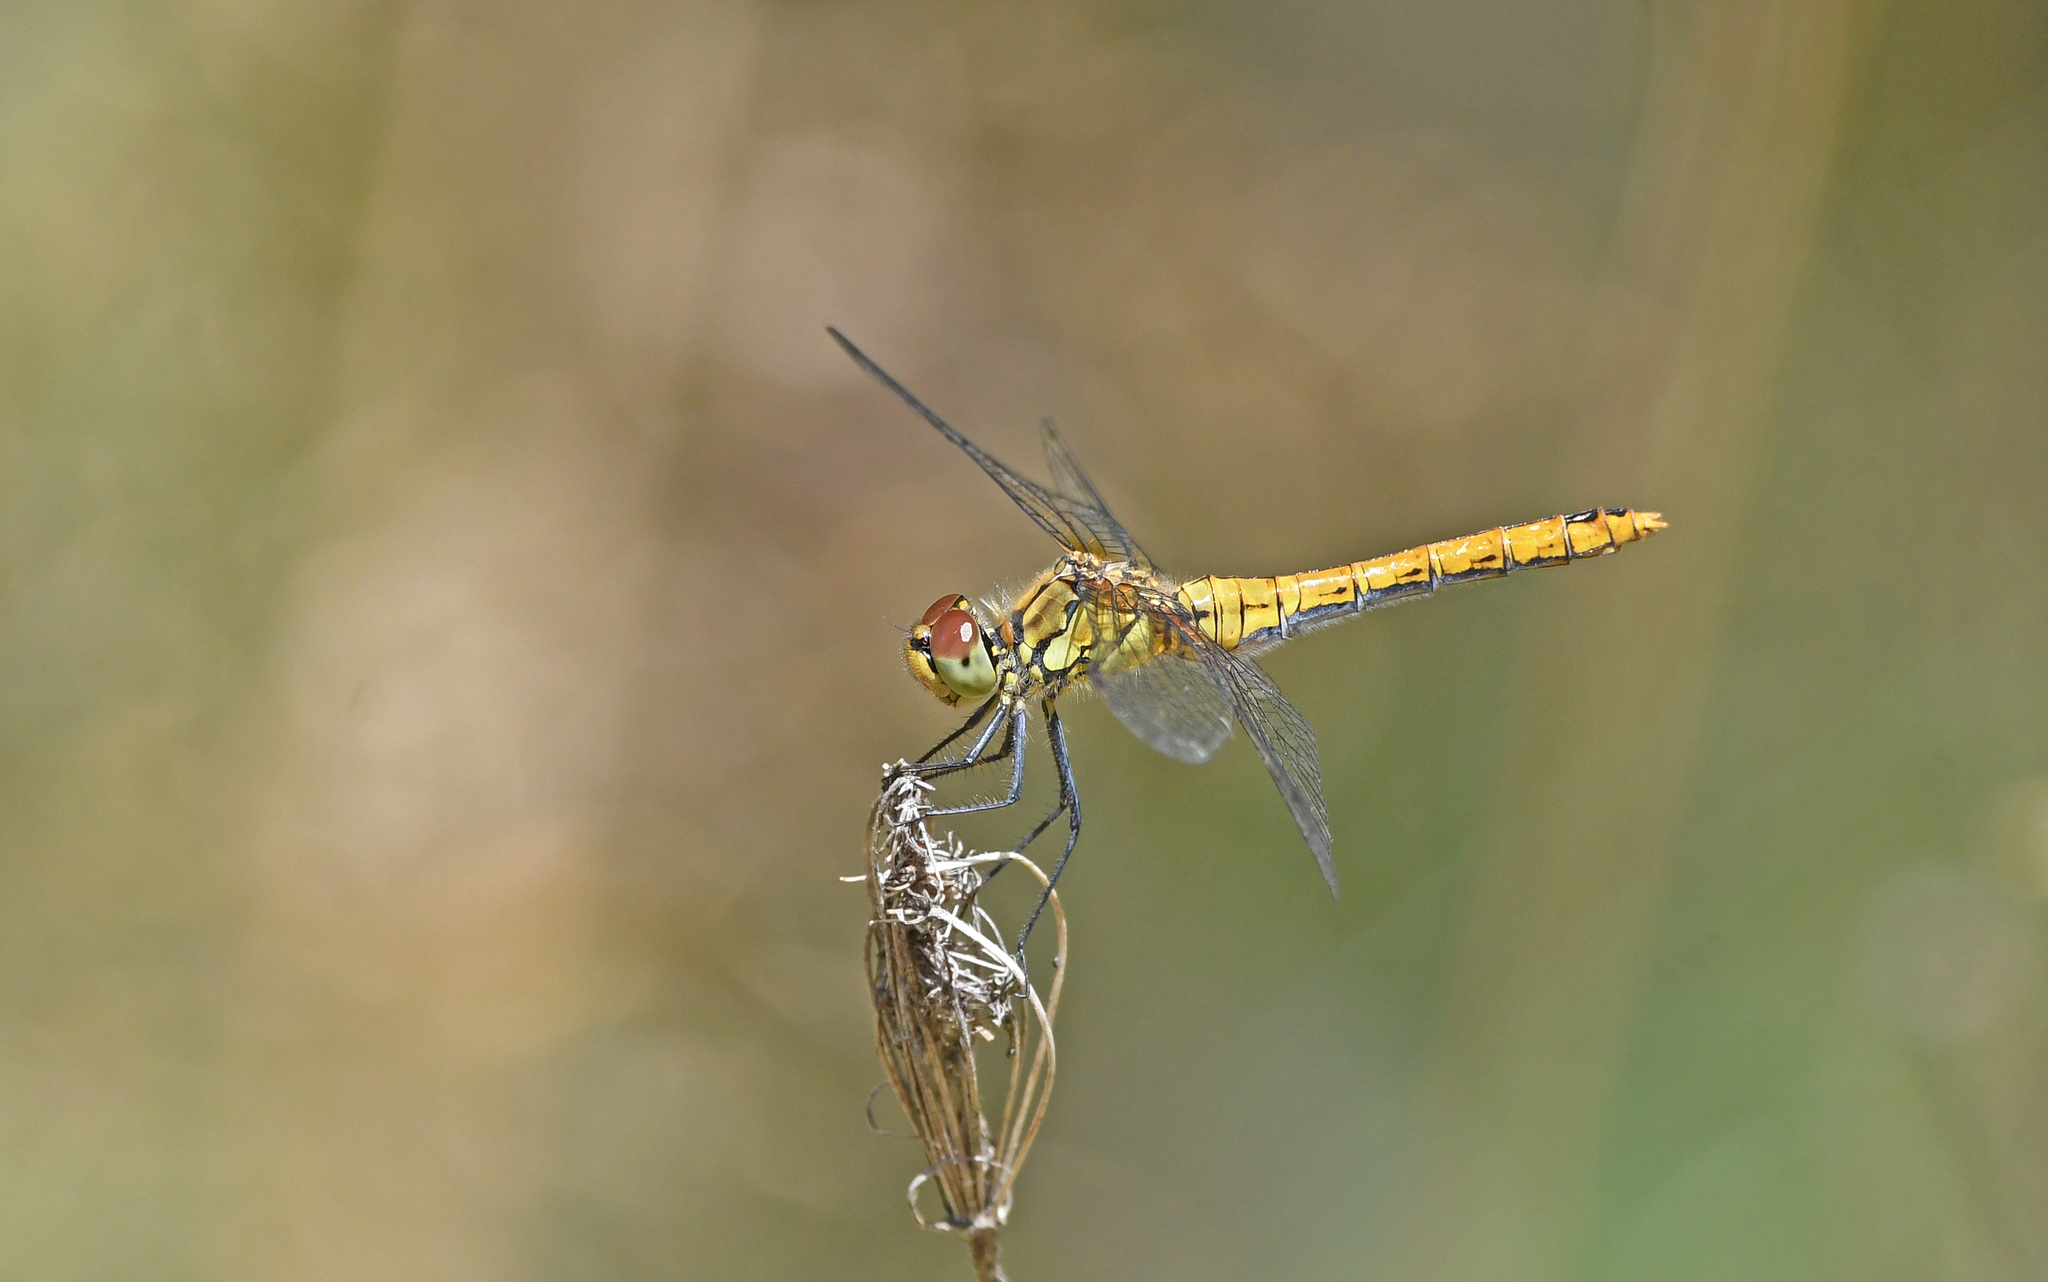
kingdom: Animalia
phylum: Arthropoda
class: Insecta
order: Odonata
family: Libellulidae
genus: Sympetrum
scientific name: Sympetrum sanguineum
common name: Ruddy darter
